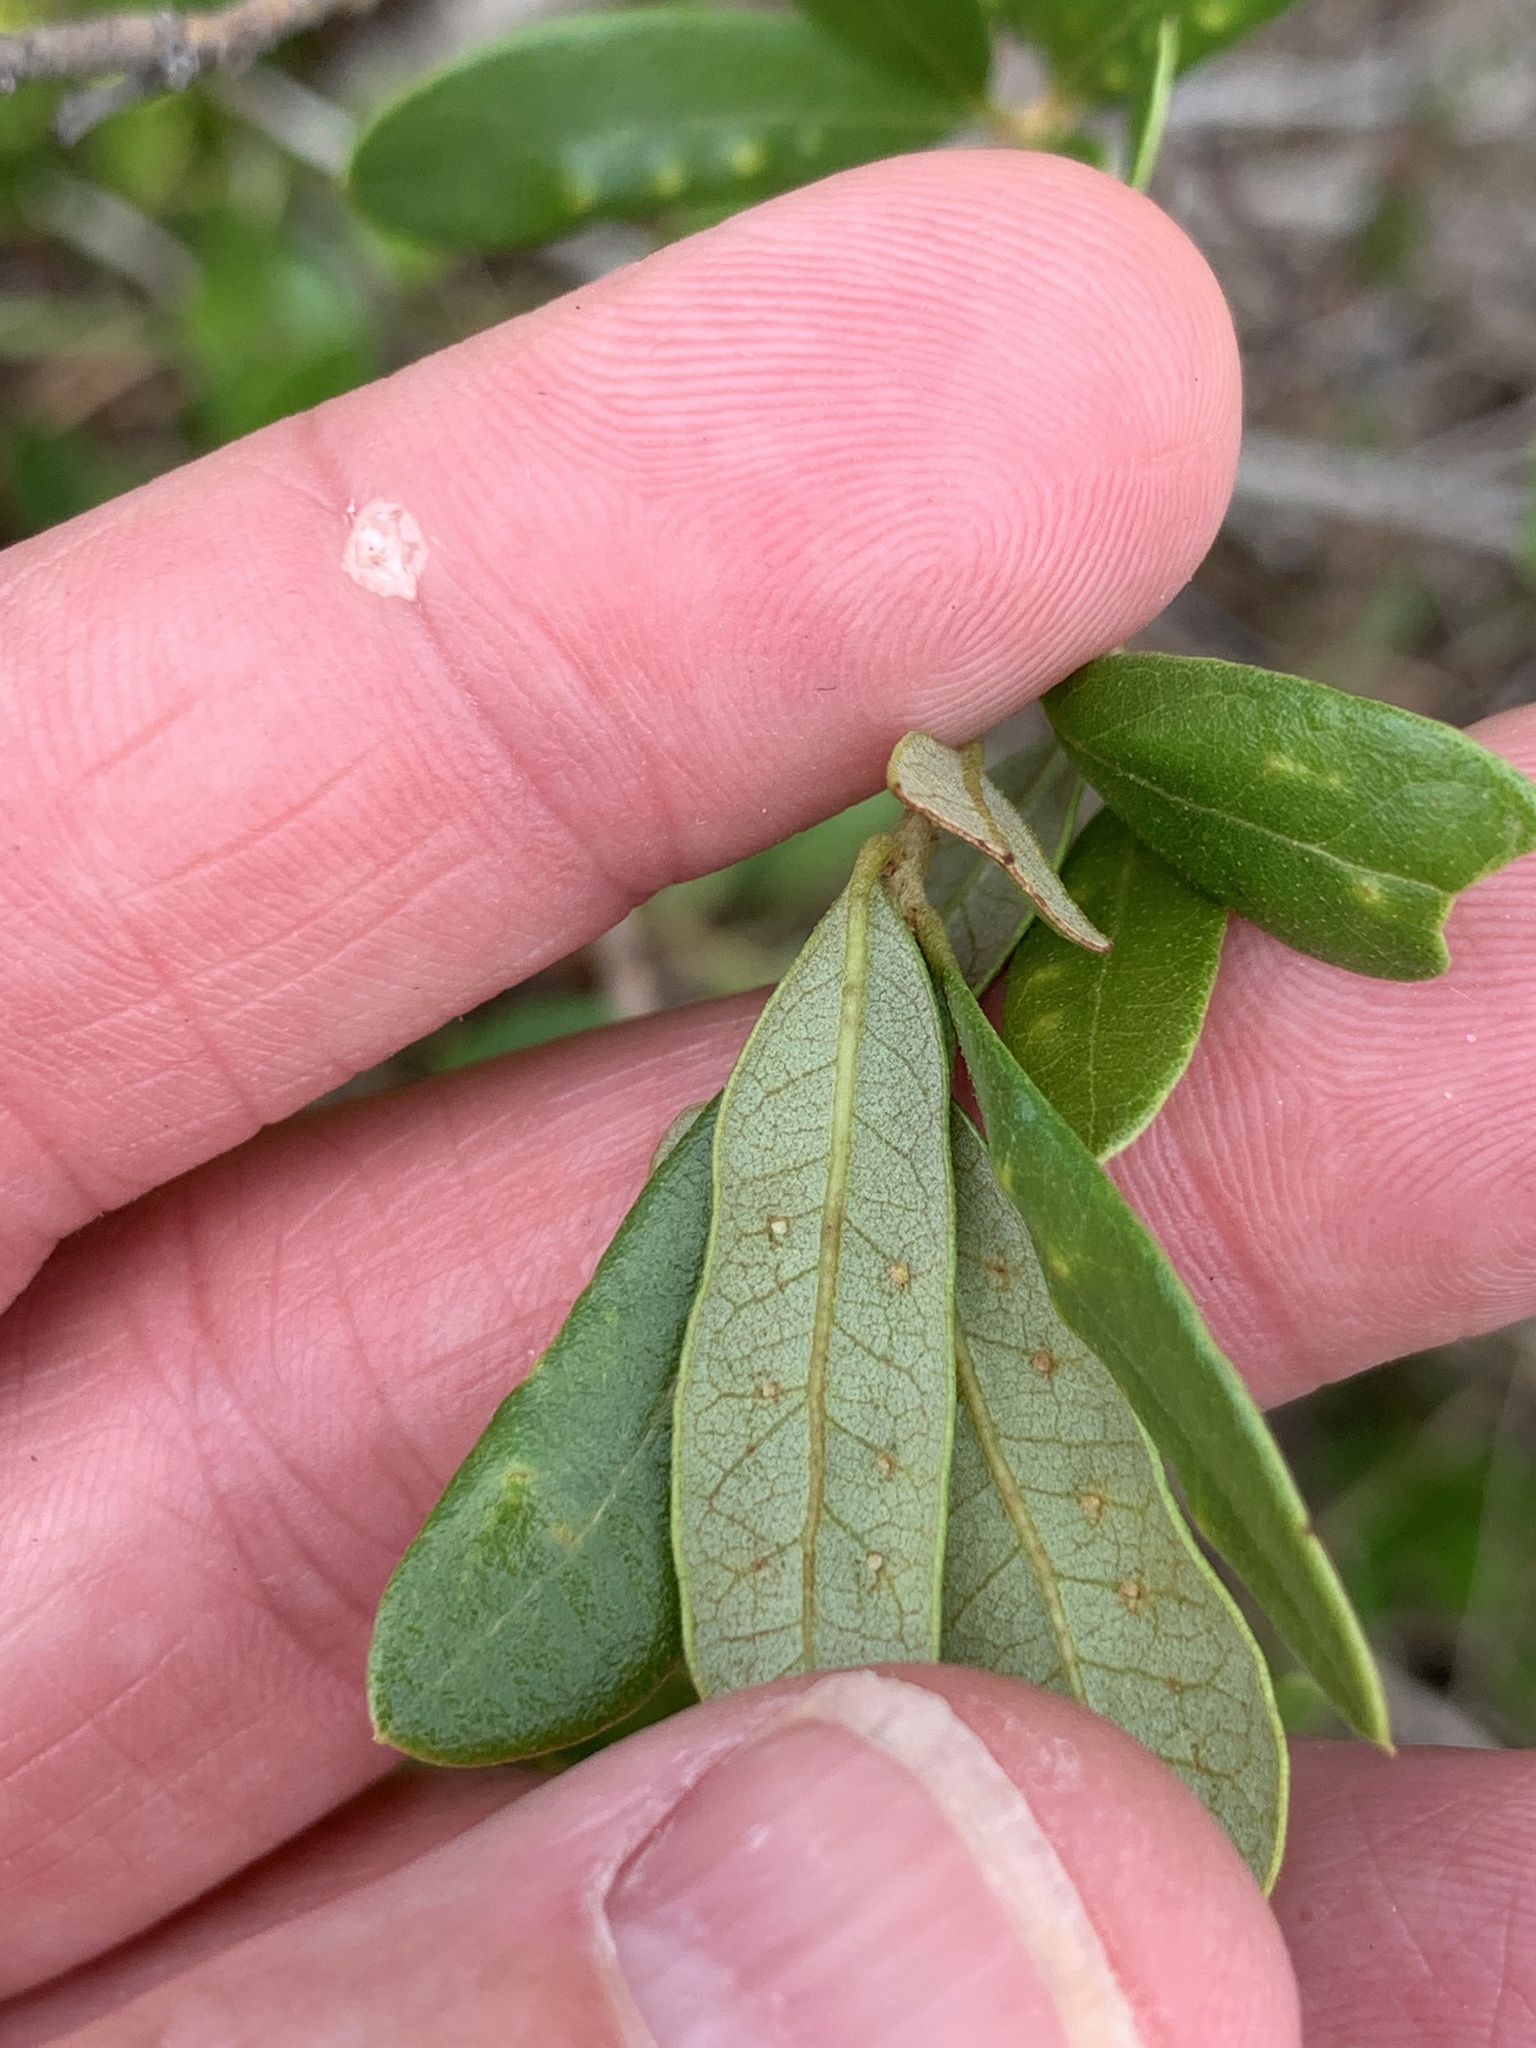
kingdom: Animalia
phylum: Arthropoda
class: Insecta
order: Hymenoptera
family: Cynipidae
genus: Belonocnema
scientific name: Belonocnema fossoria
